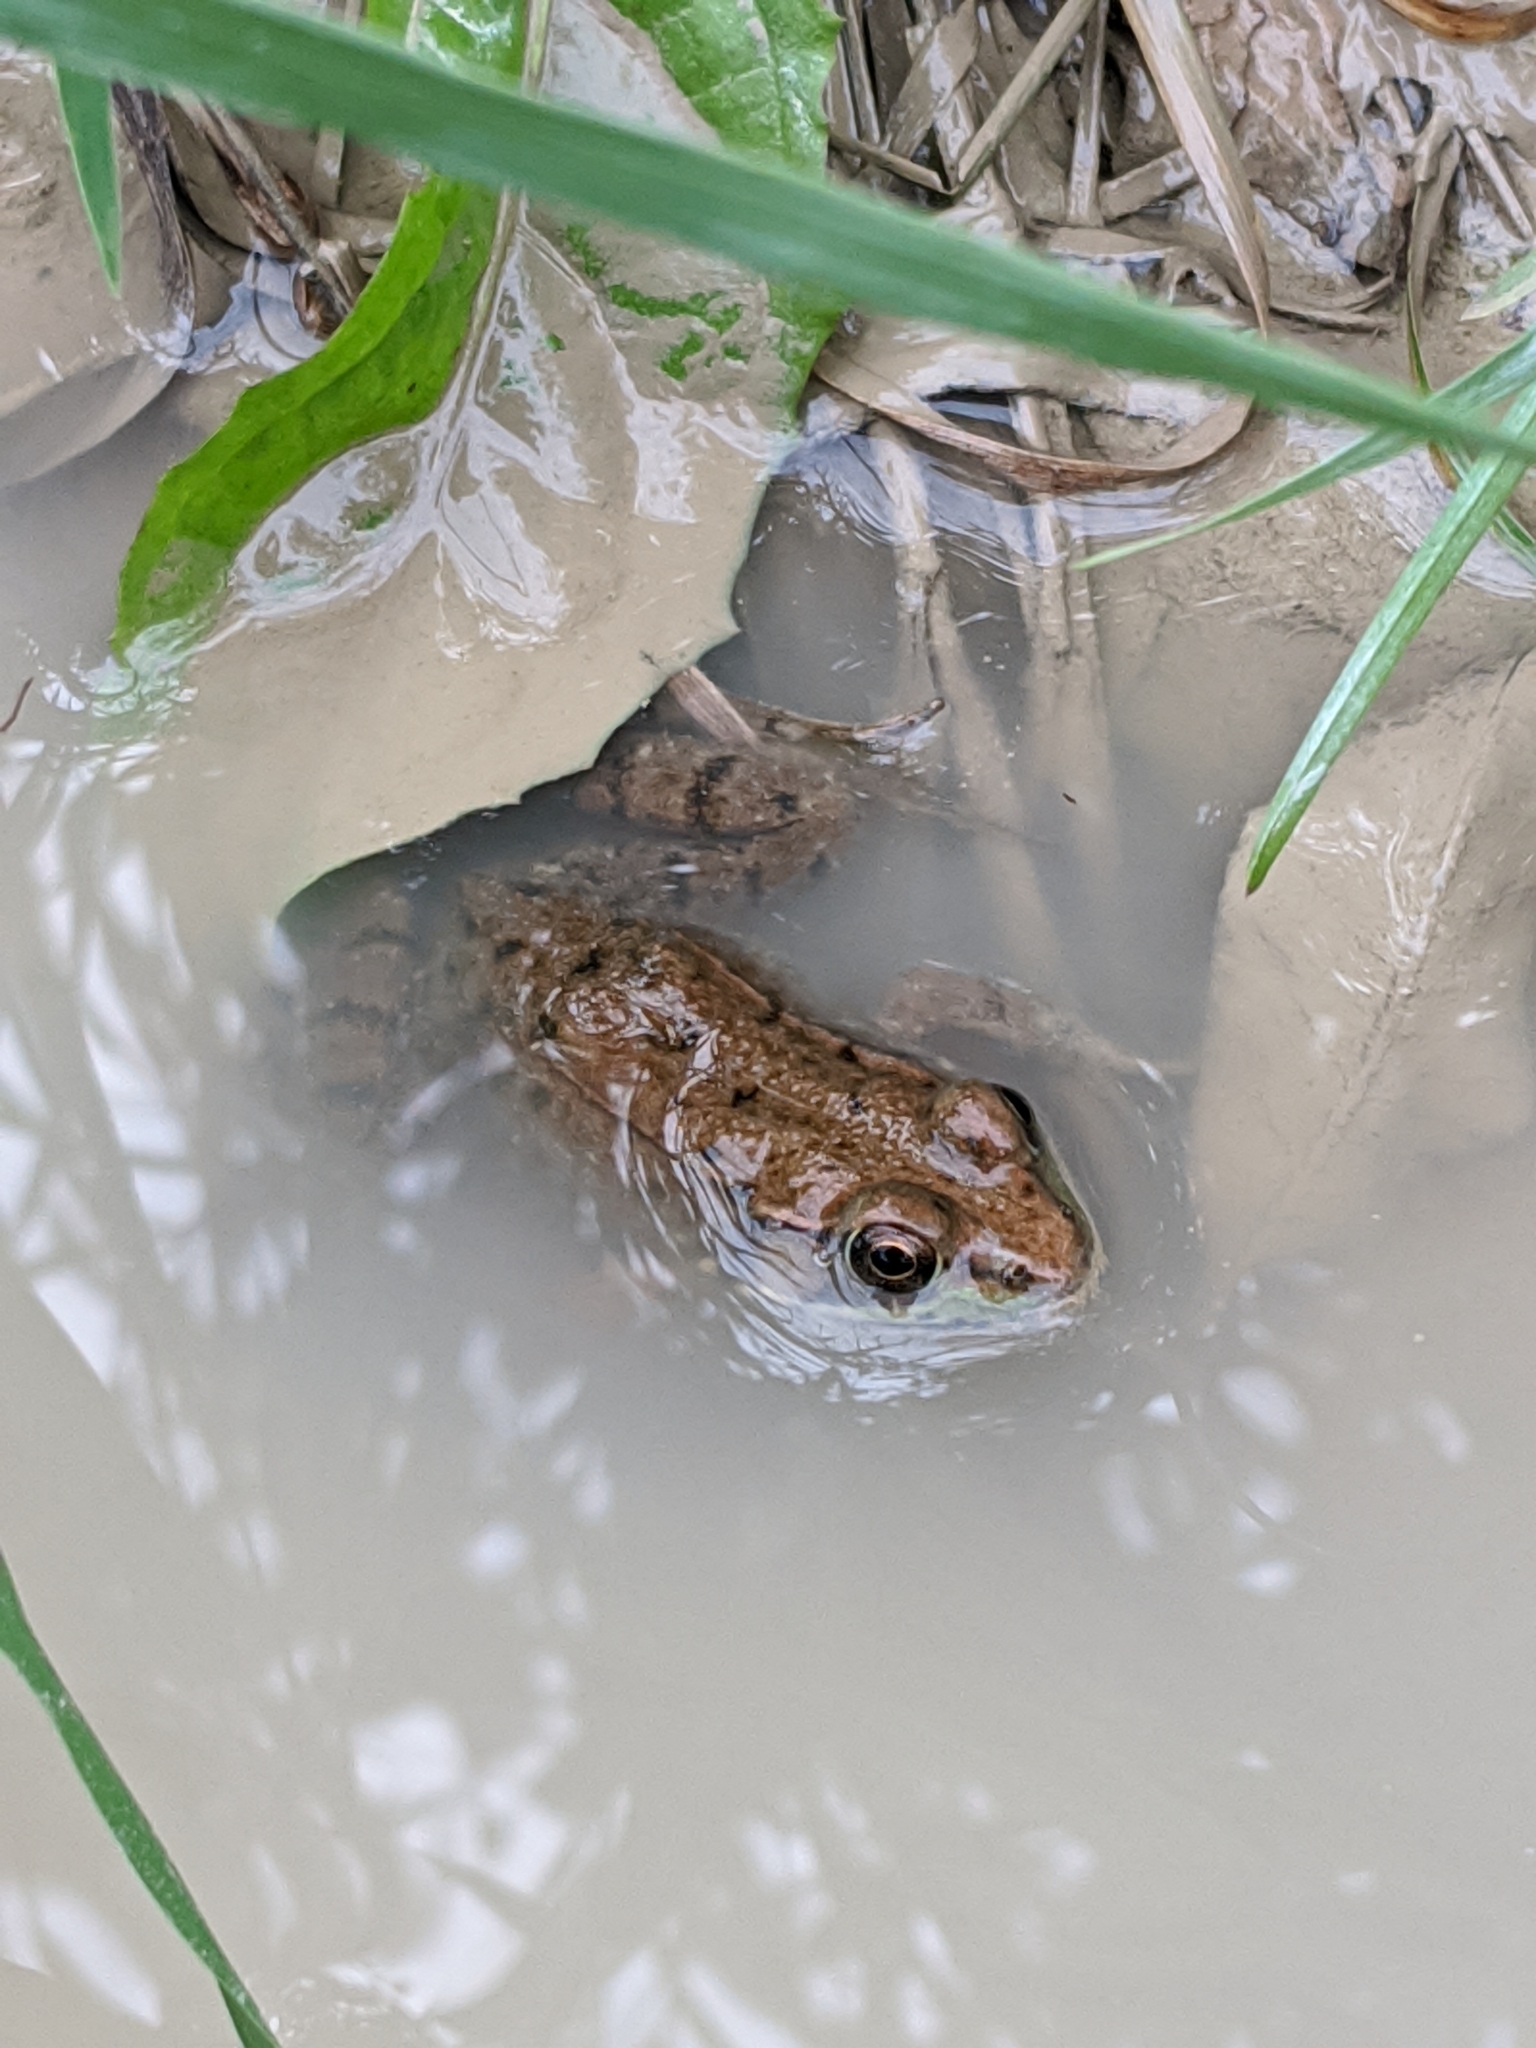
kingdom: Animalia
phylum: Chordata
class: Amphibia
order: Anura
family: Ranidae
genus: Lithobates
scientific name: Lithobates clamitans
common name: Green frog
